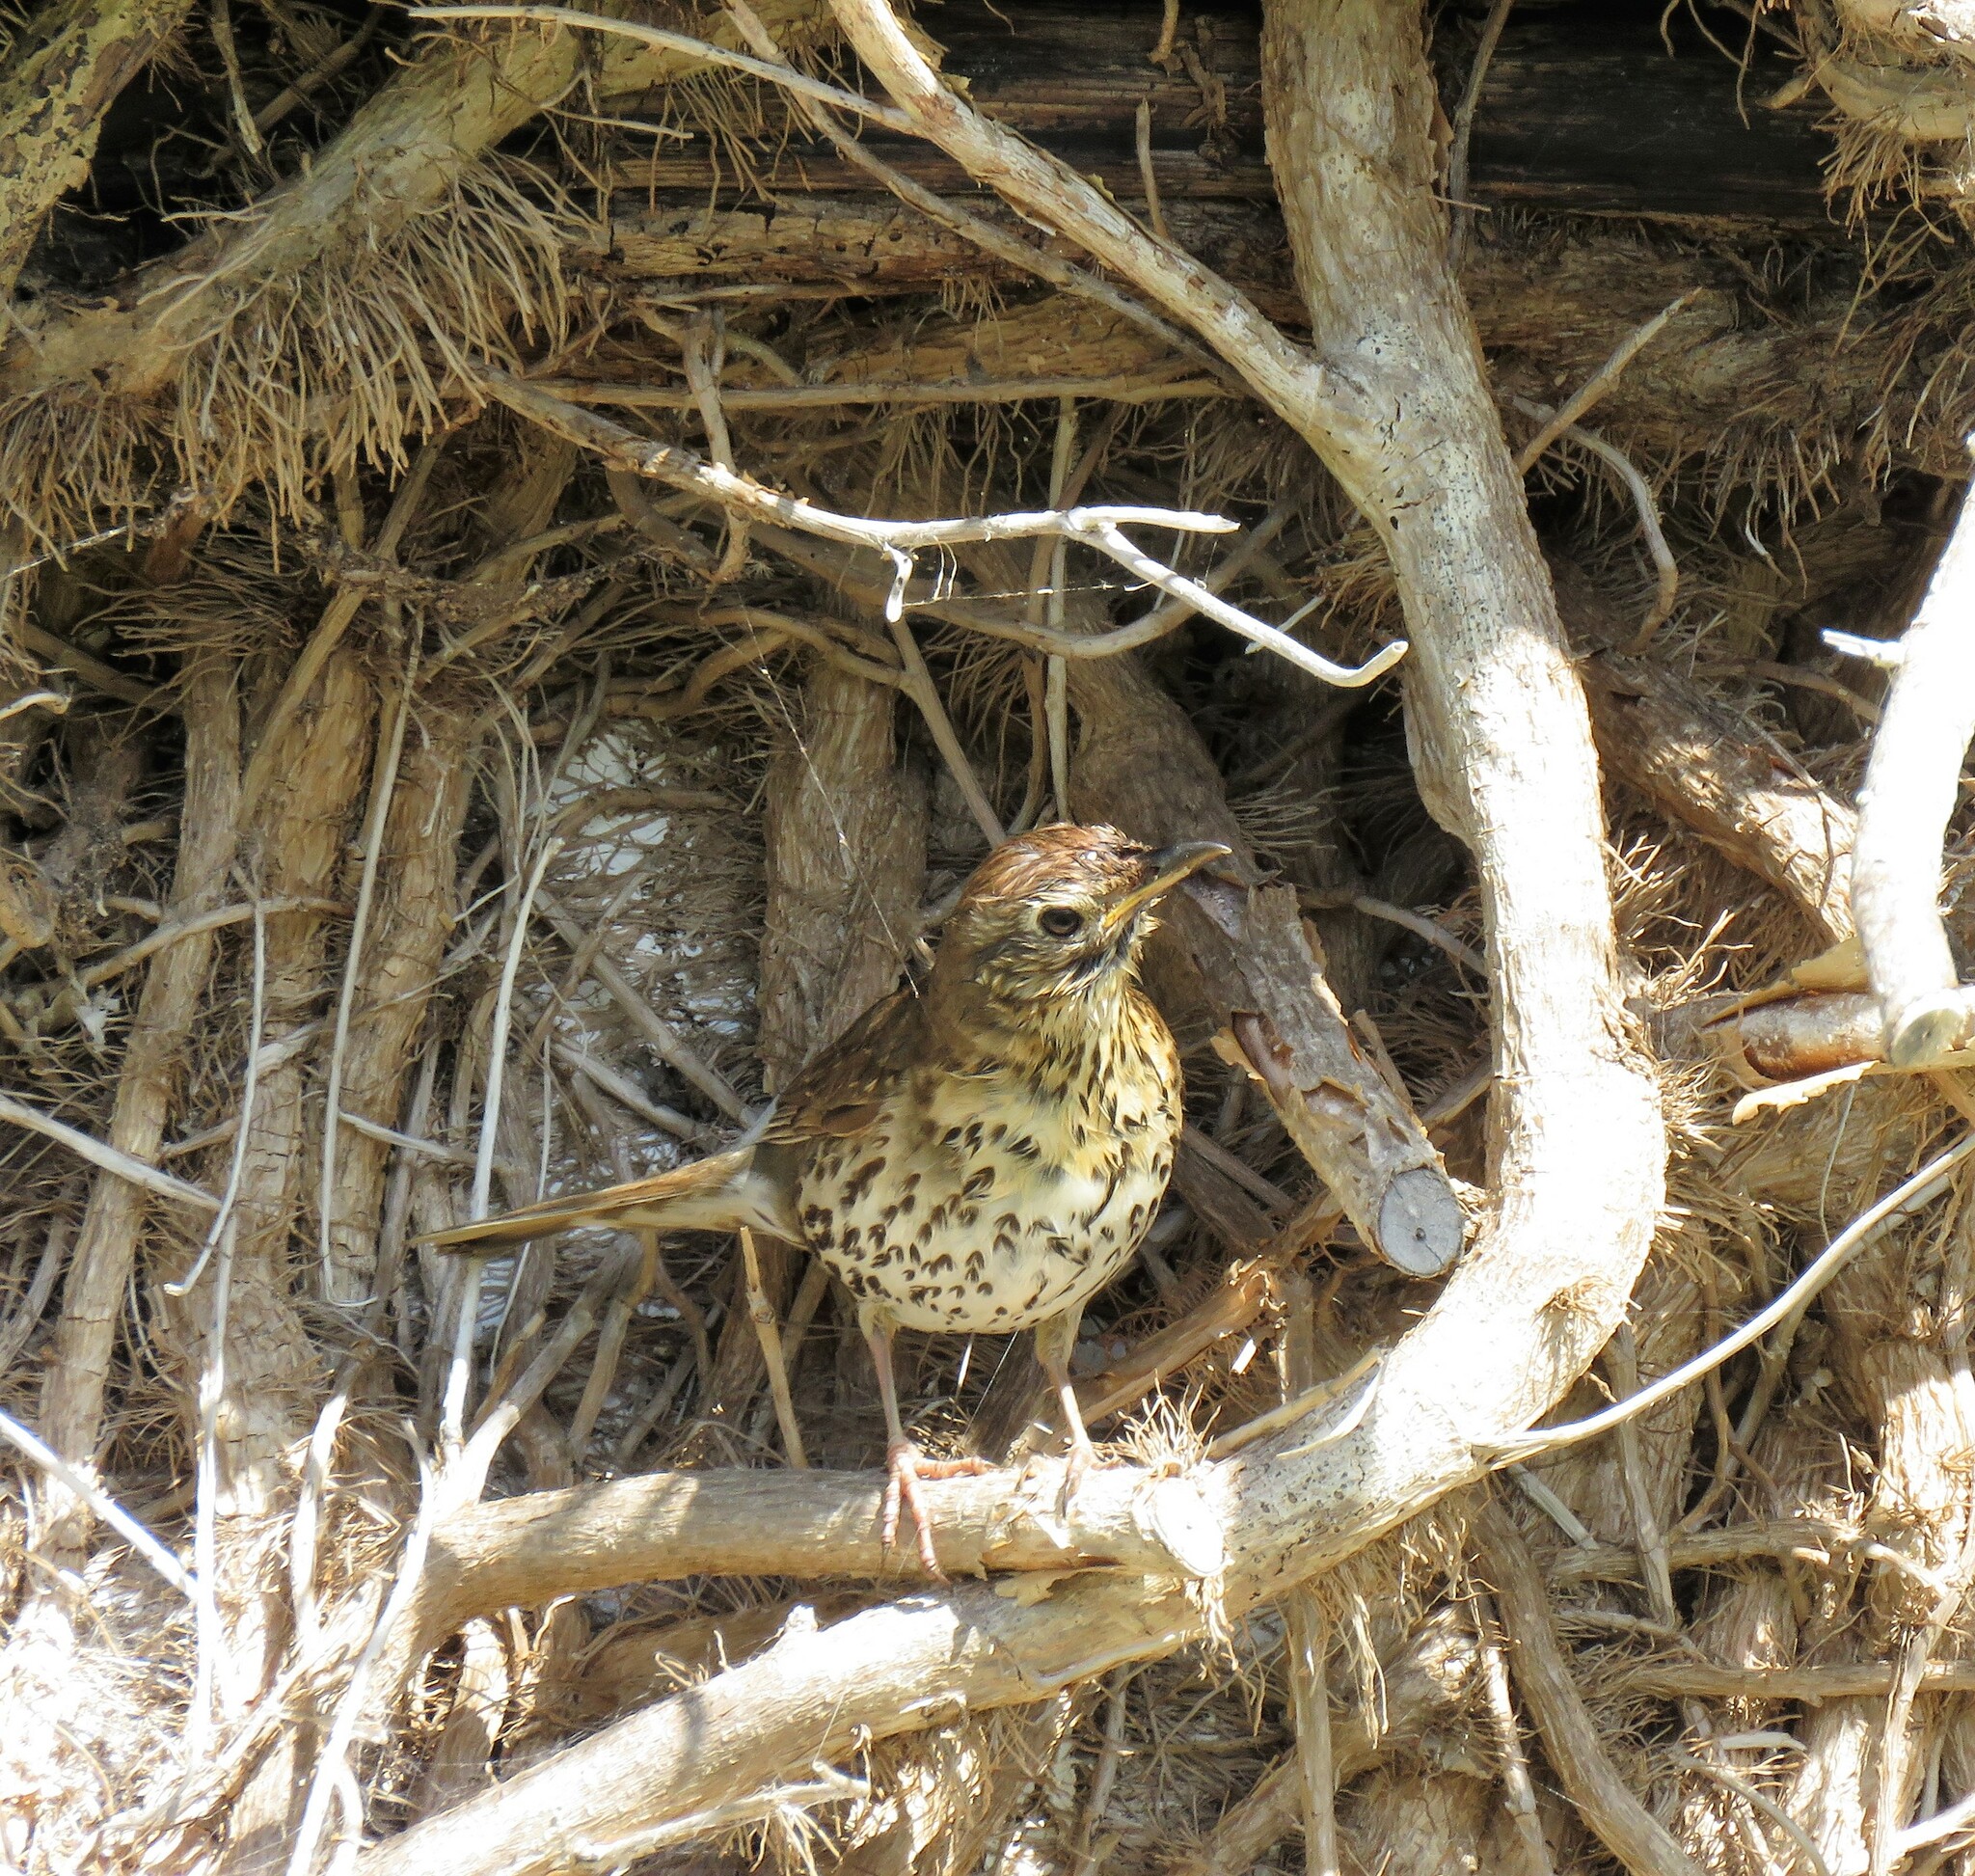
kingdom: Animalia
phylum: Chordata
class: Aves
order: Passeriformes
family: Turdidae
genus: Turdus
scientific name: Turdus philomelos
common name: Song thrush
